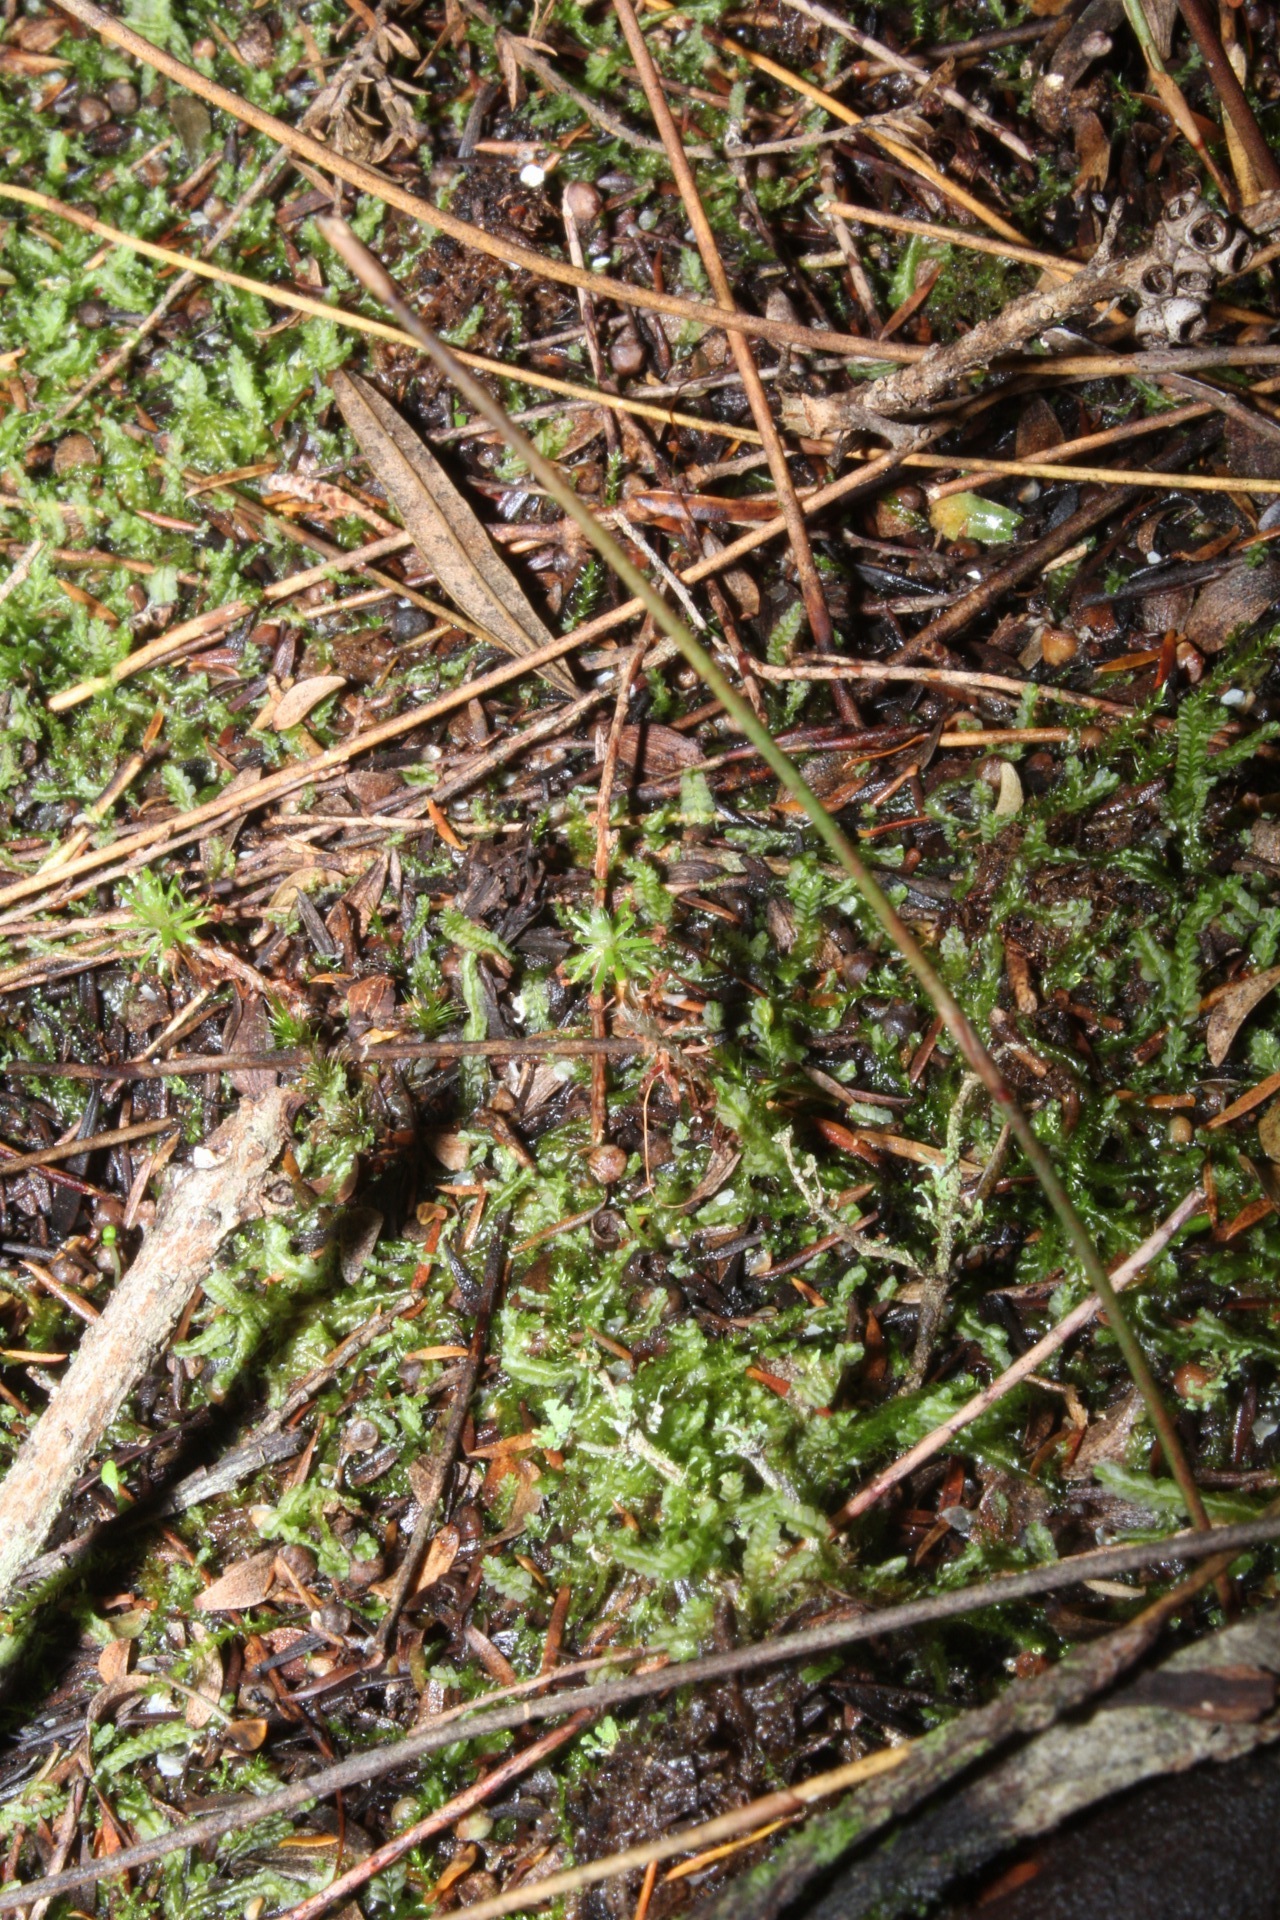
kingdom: Plantae
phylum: Tracheophyta
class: Magnoliopsida
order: Caryophyllales
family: Droseraceae
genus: Drosera
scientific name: Drosera paleacea
